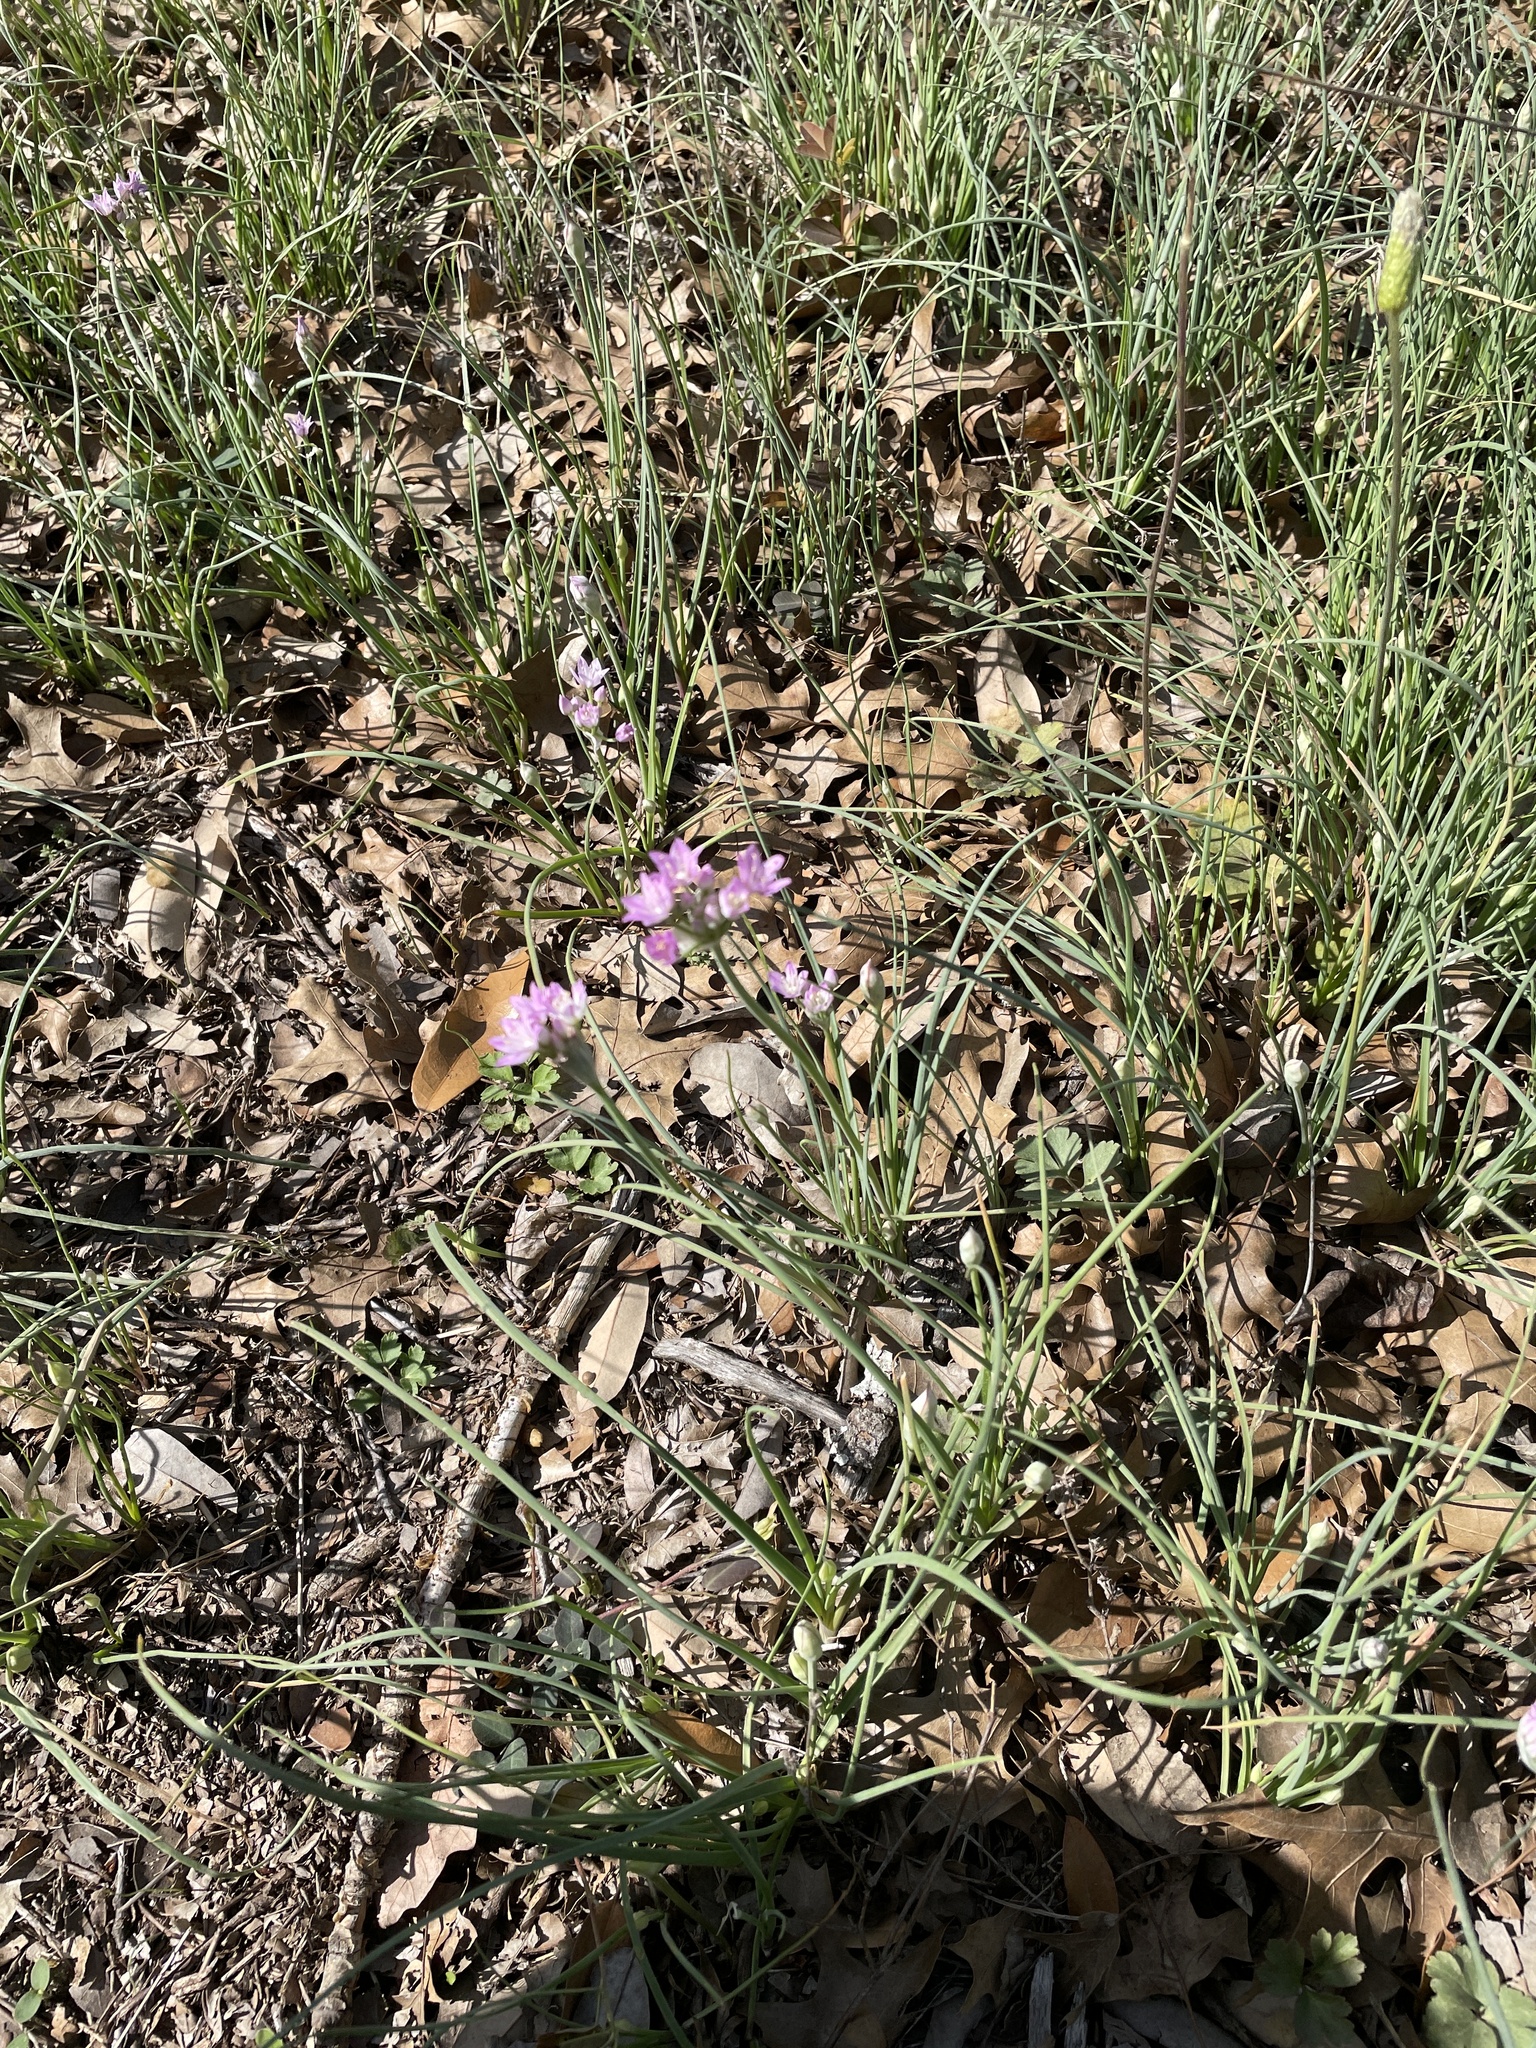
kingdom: Plantae
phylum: Tracheophyta
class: Liliopsida
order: Asparagales
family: Amaryllidaceae
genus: Allium
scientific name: Allium drummondii
